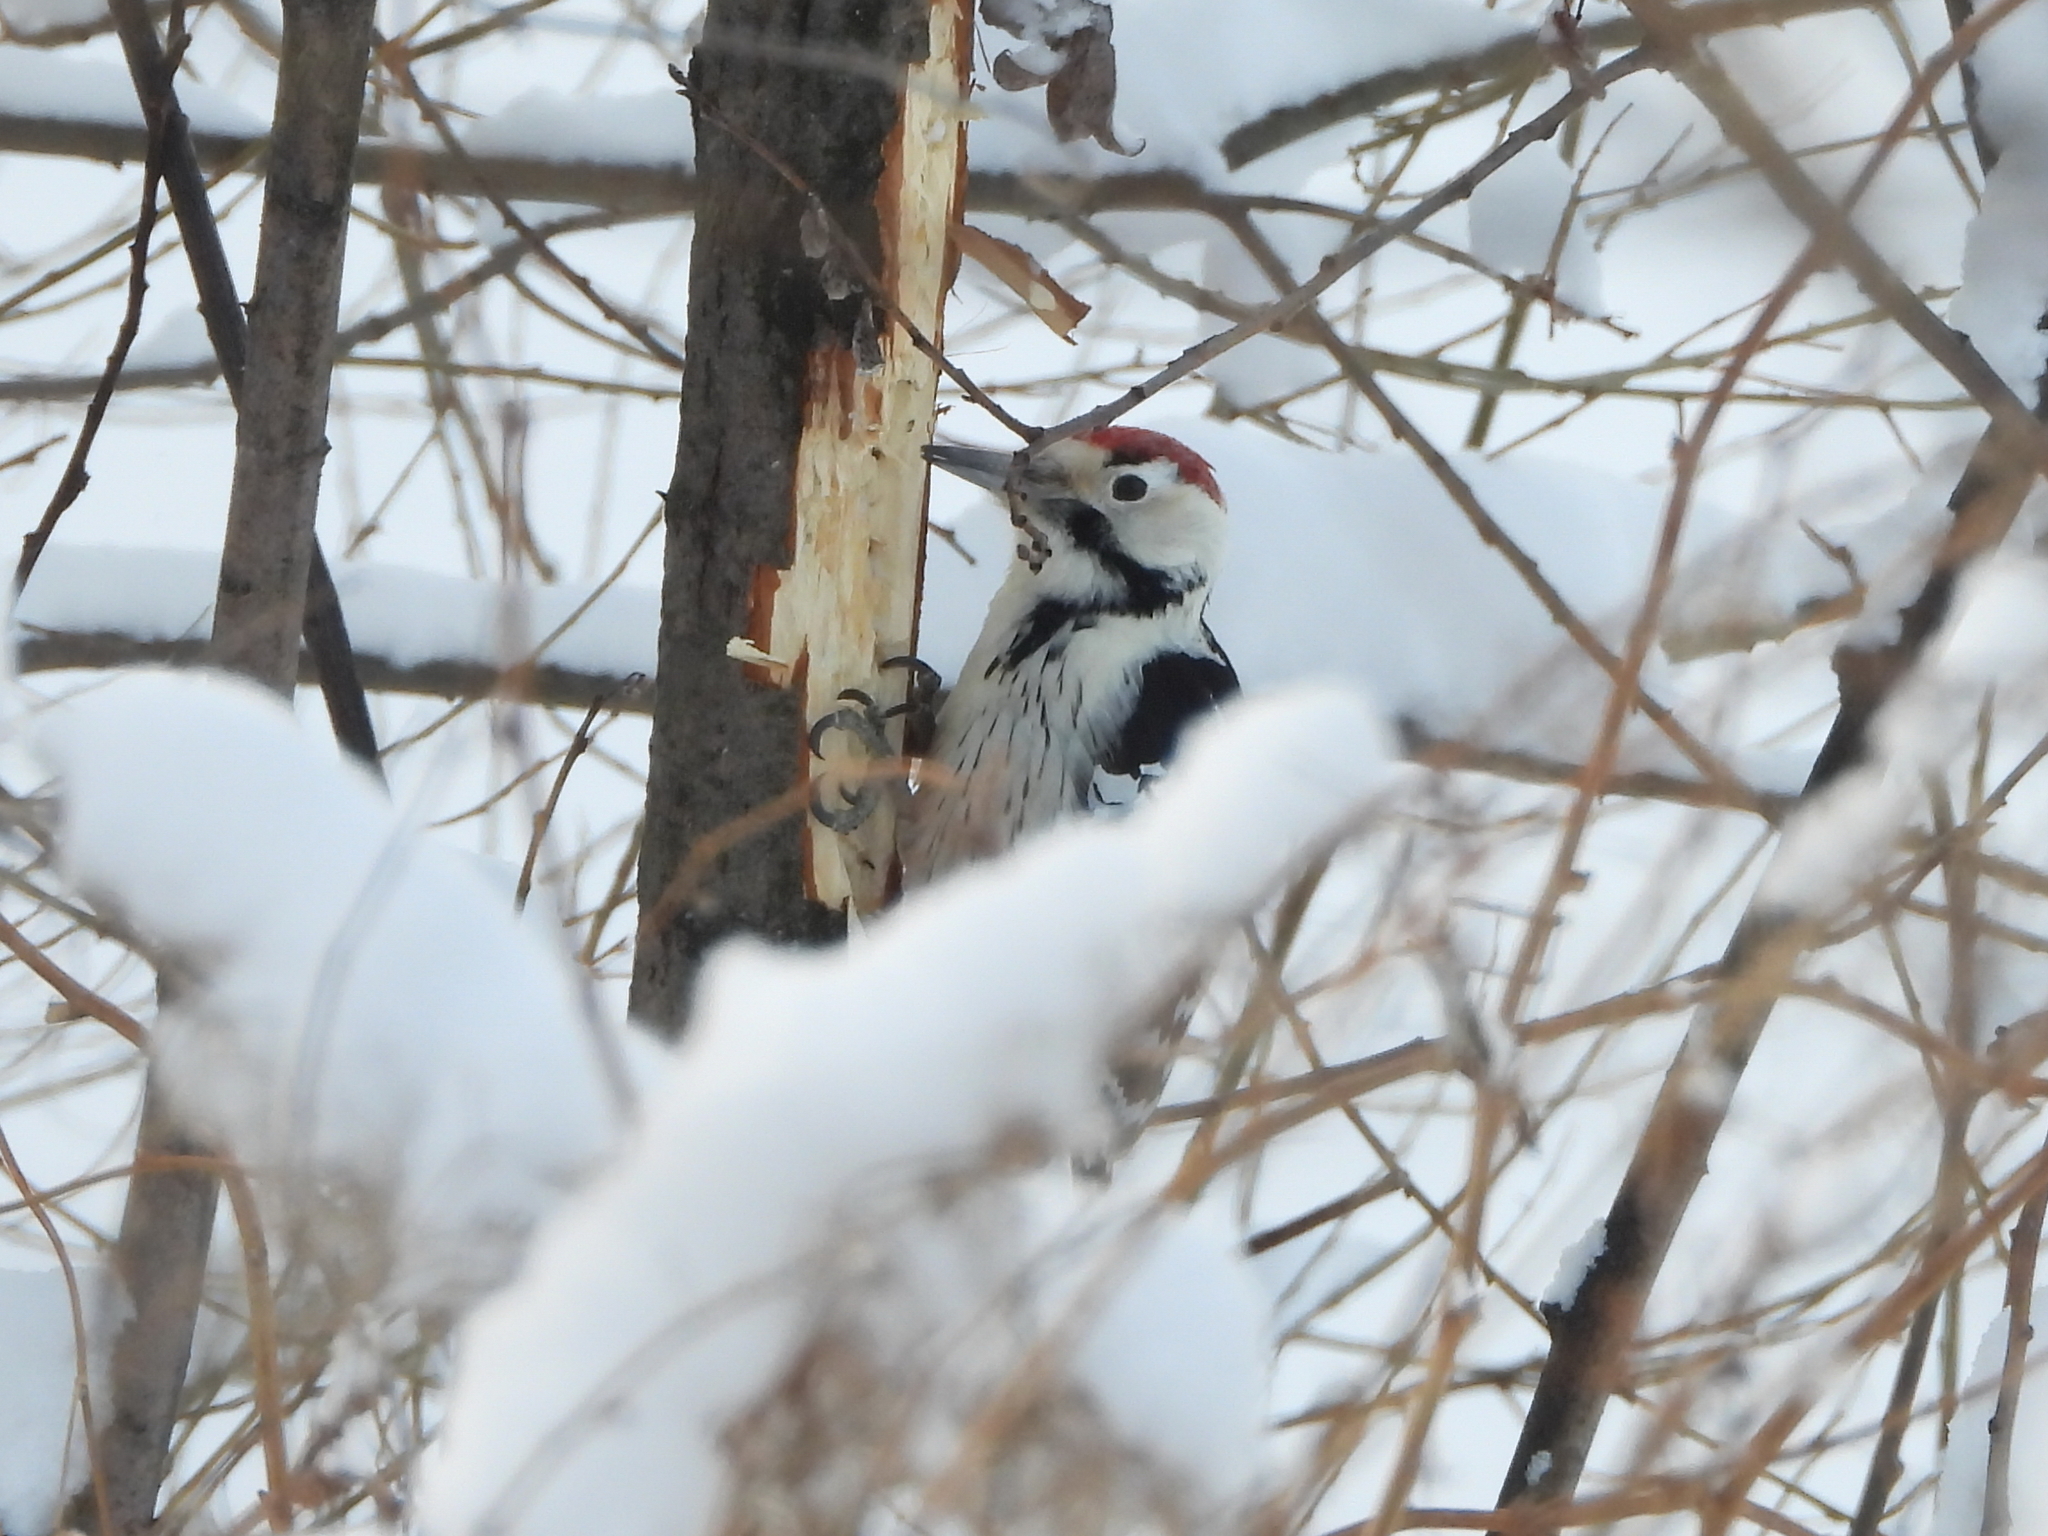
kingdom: Animalia
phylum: Chordata
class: Aves
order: Piciformes
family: Picidae
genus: Dendrocopos
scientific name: Dendrocopos leucotos
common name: White-backed woodpecker
